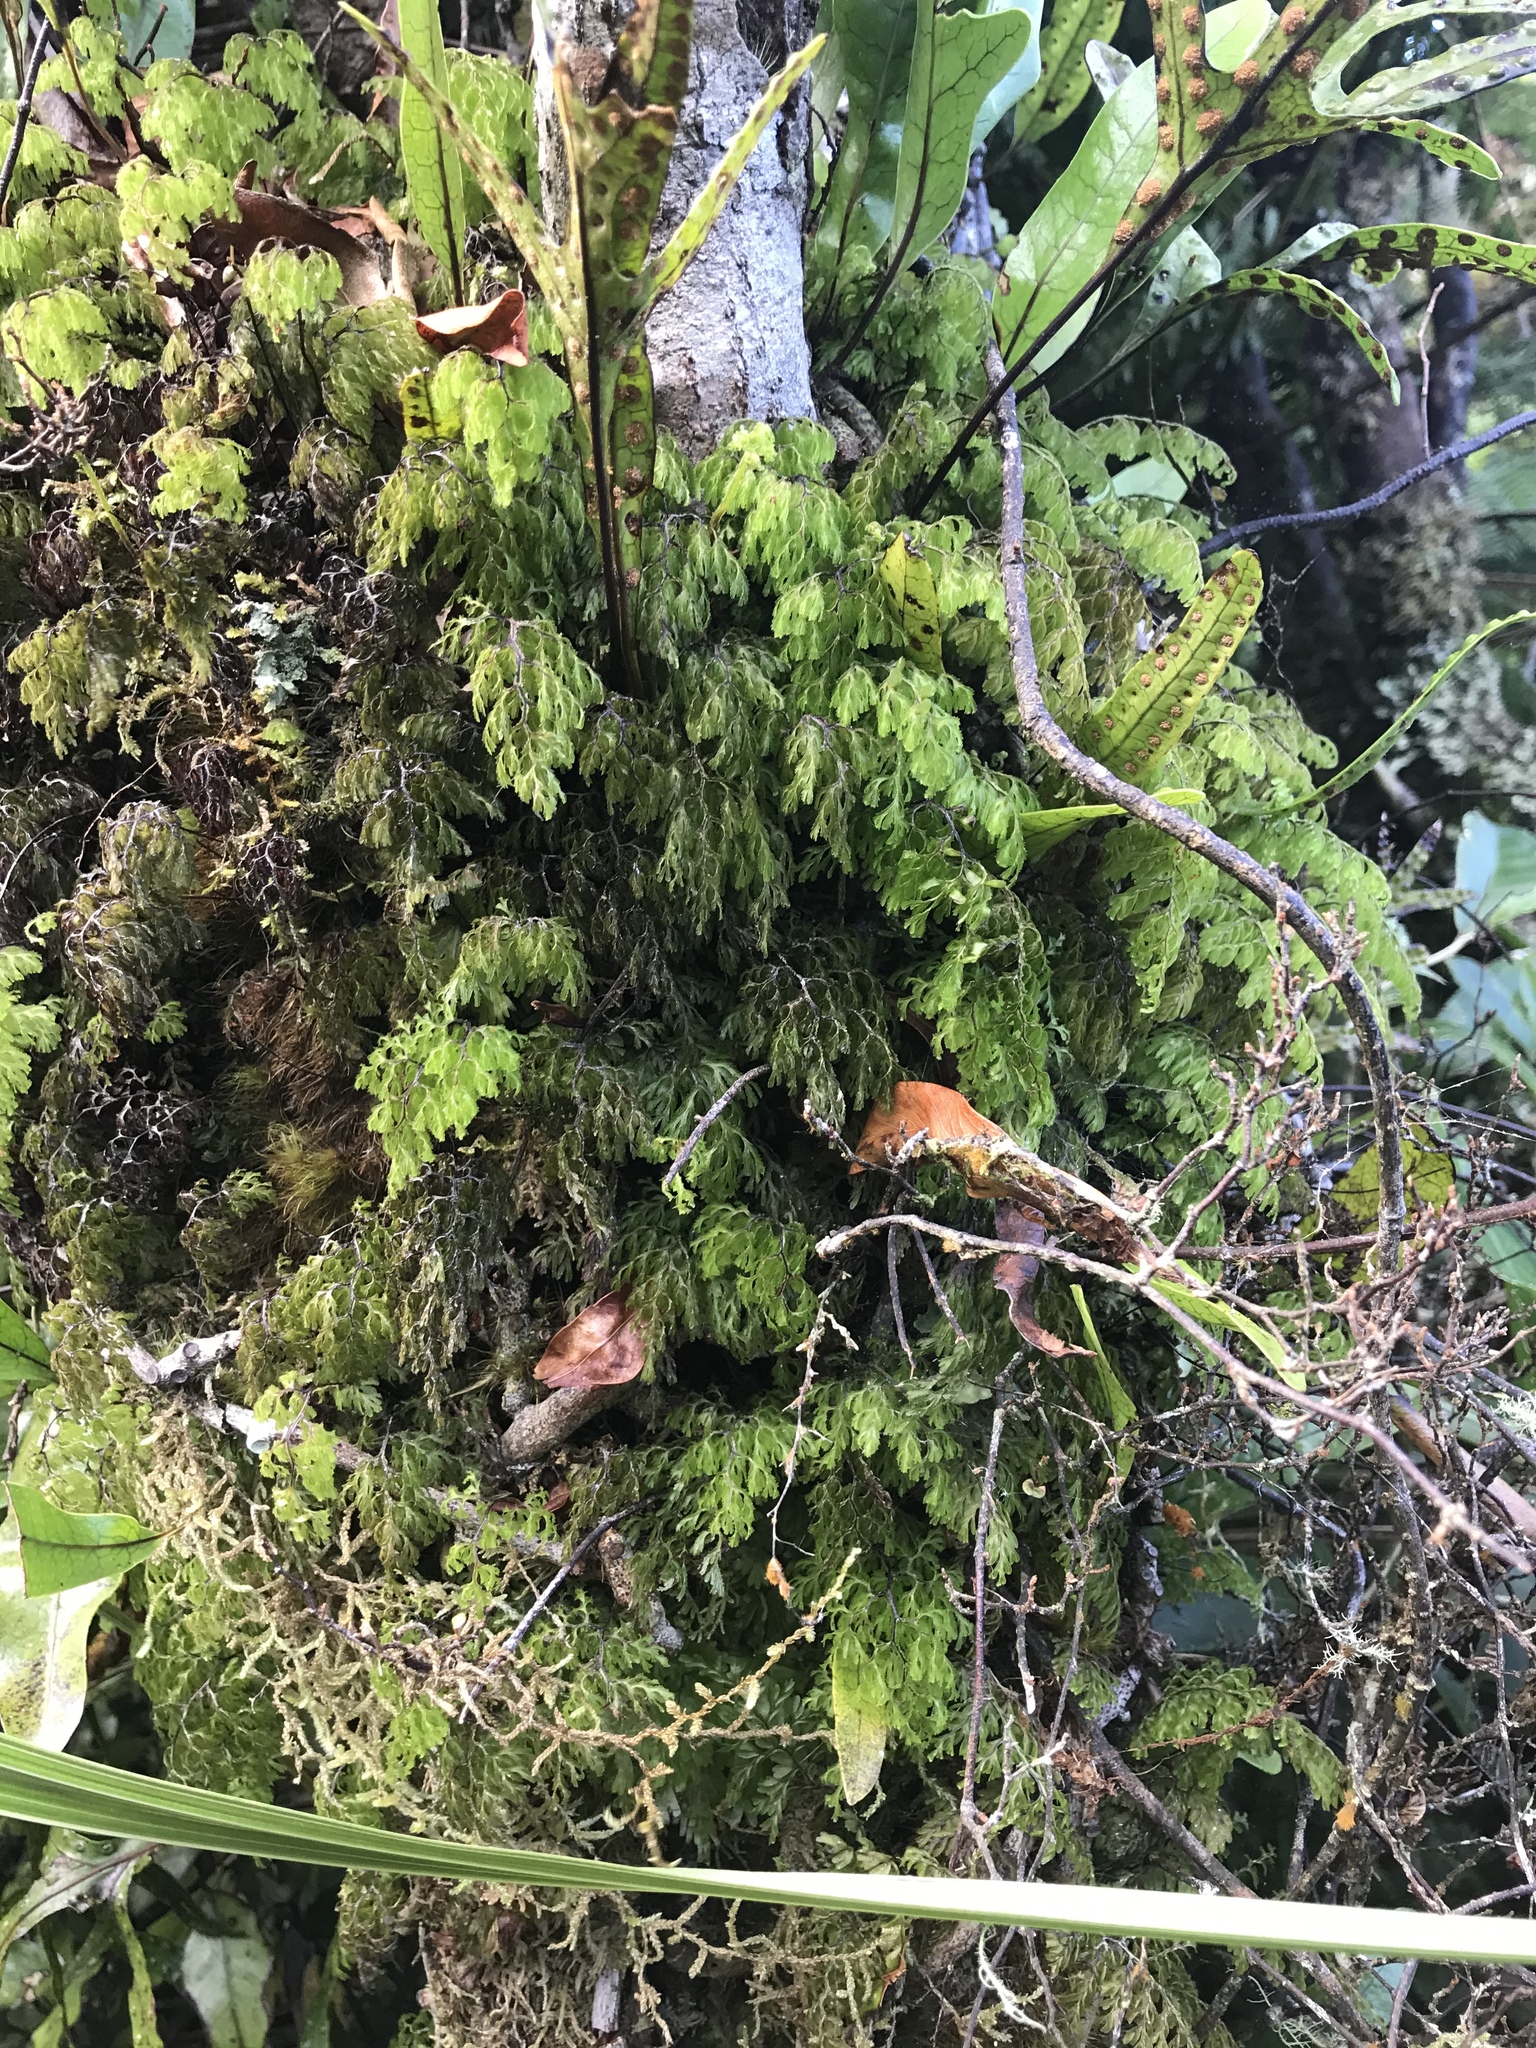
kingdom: Plantae
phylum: Tracheophyta
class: Polypodiopsida
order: Hymenophyllales
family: Hymenophyllaceae
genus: Hymenophyllum
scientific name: Hymenophyllum multifidum
